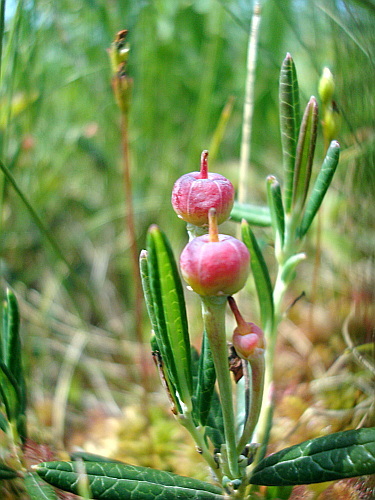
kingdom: Plantae
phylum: Tracheophyta
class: Magnoliopsida
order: Ericales
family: Ericaceae
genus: Andromeda
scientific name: Andromeda polifolia
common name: Bog-rosemary
